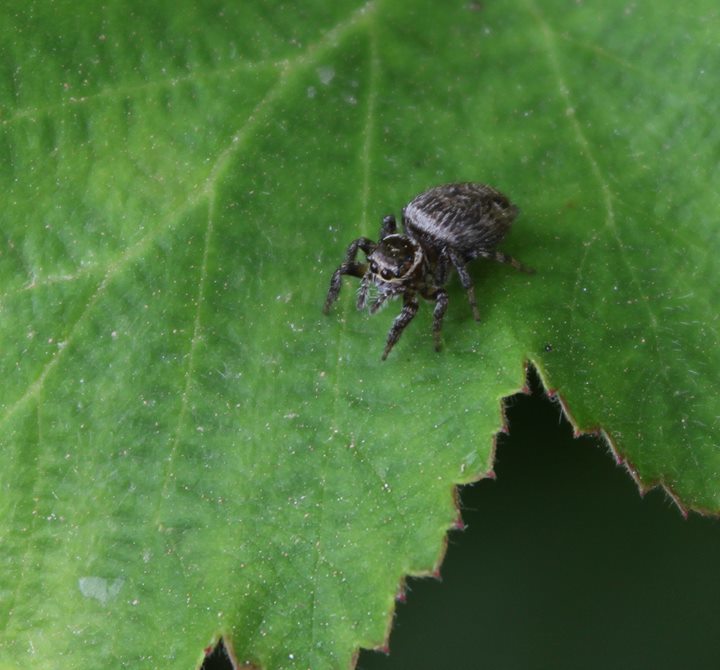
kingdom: Animalia
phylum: Arthropoda
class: Arachnida
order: Araneae
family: Salticidae
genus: Evarcha
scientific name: Evarcha jucunda
